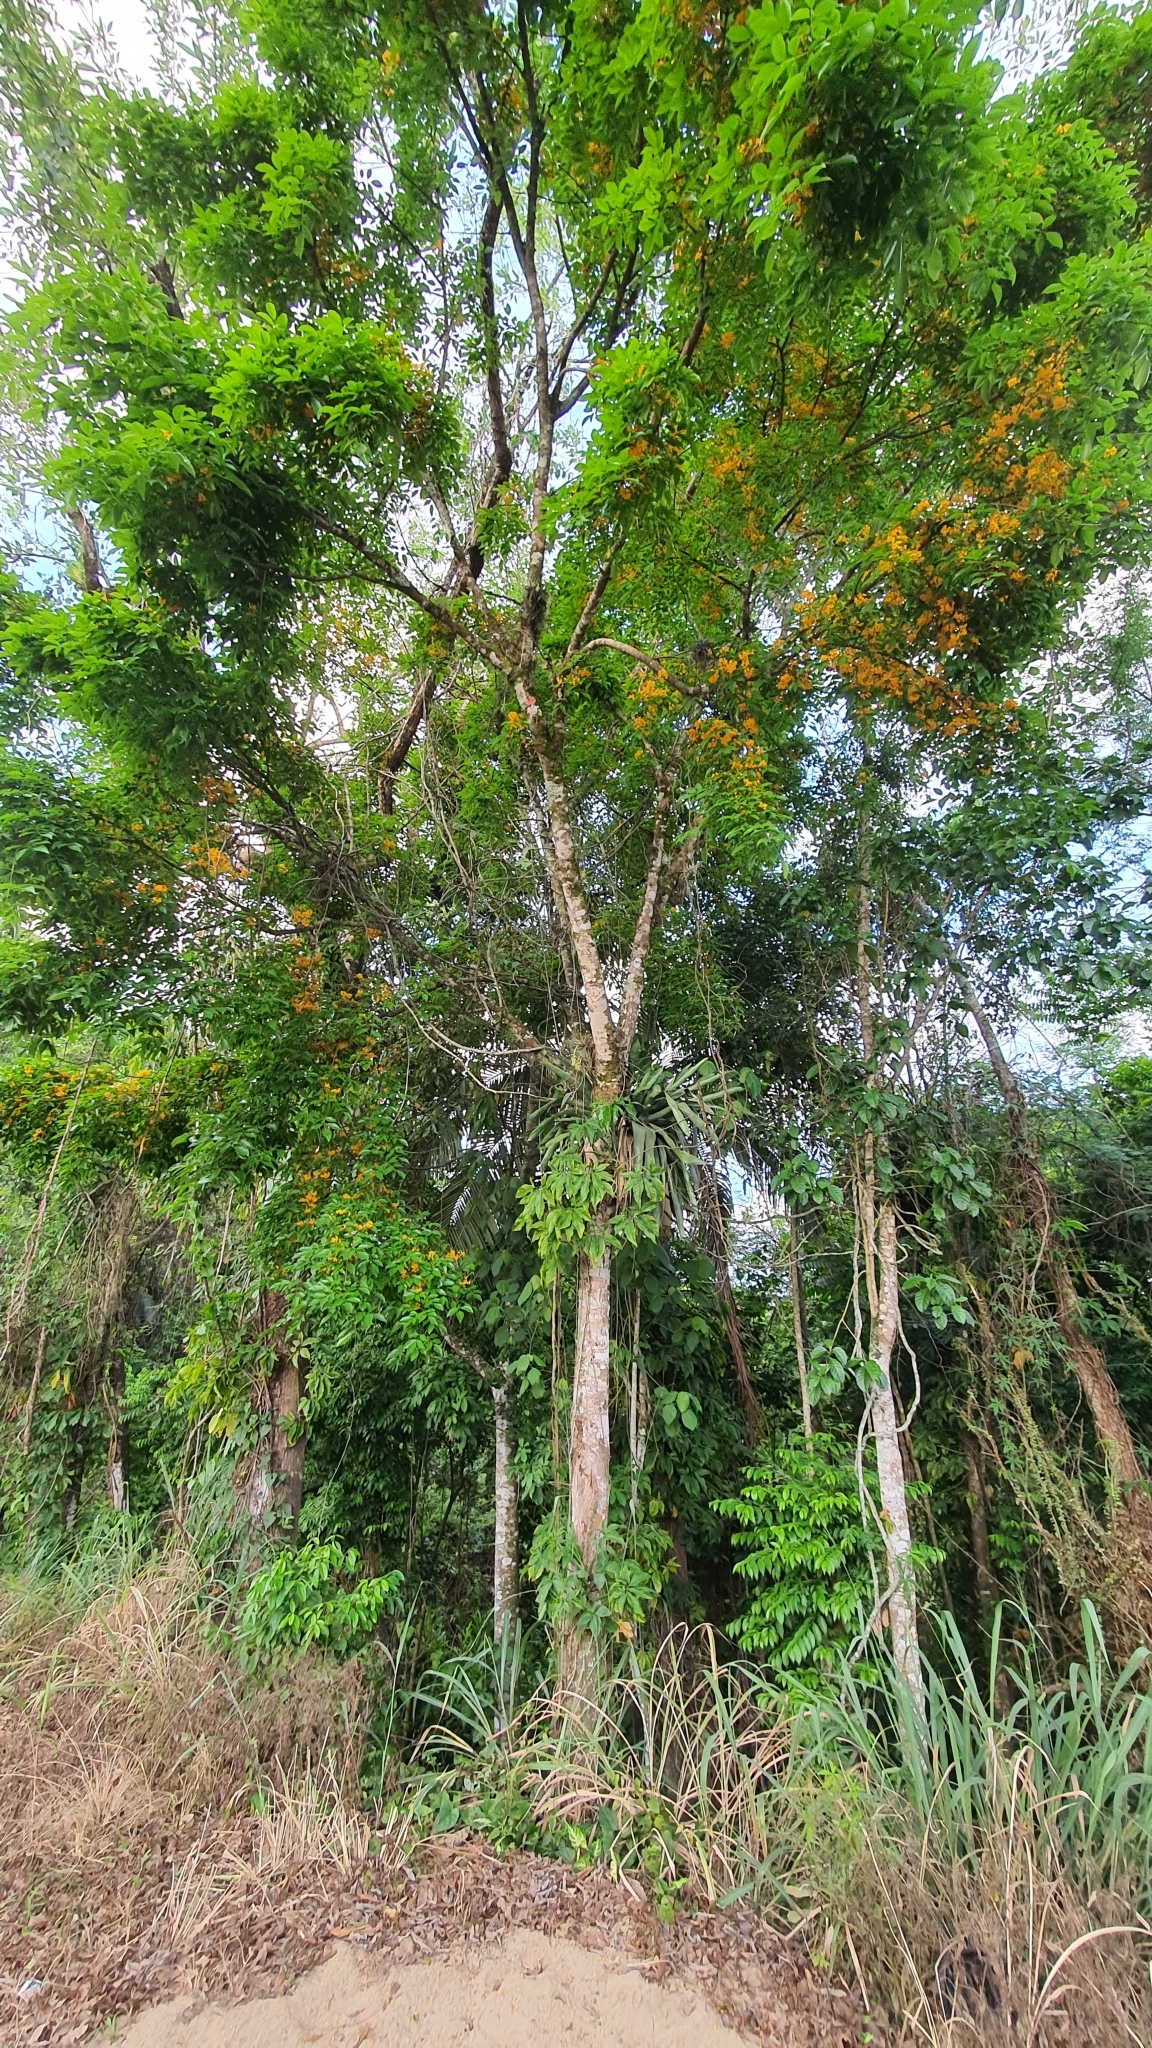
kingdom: Plantae
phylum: Tracheophyta
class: Magnoliopsida
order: Fabales
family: Fabaceae
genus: Platymiscium
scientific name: Platymiscium floribundum
